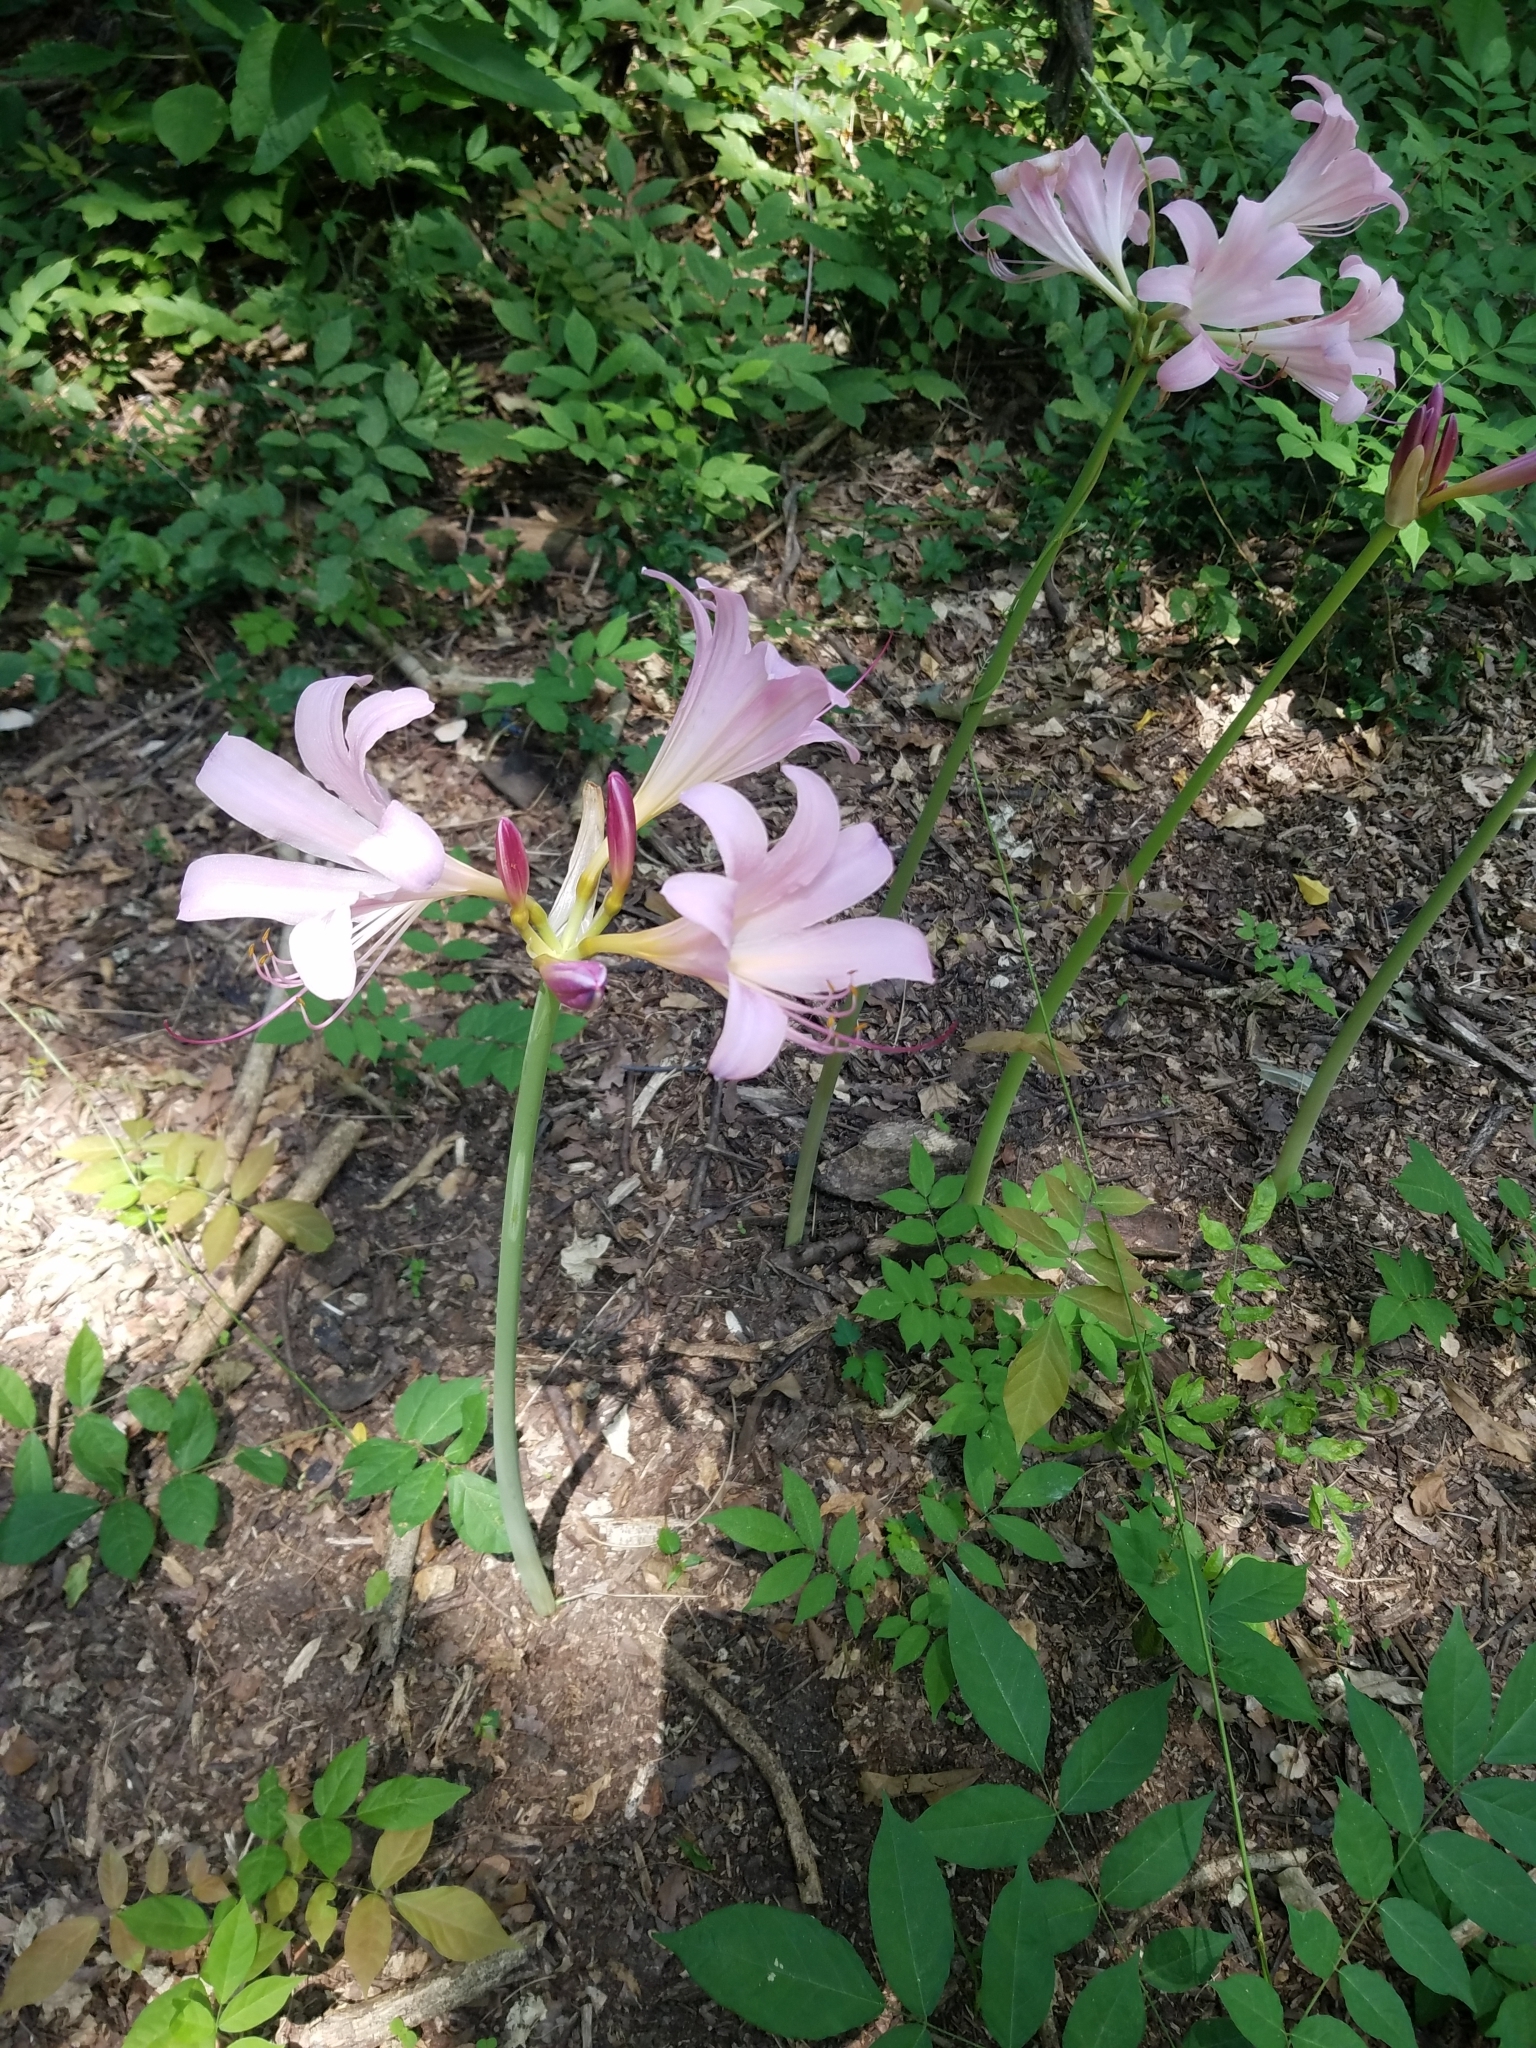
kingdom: Plantae
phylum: Tracheophyta
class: Liliopsida
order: Asparagales
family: Amaryllidaceae
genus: Lycoris
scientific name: Lycoris squamigera
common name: Magic-lily
